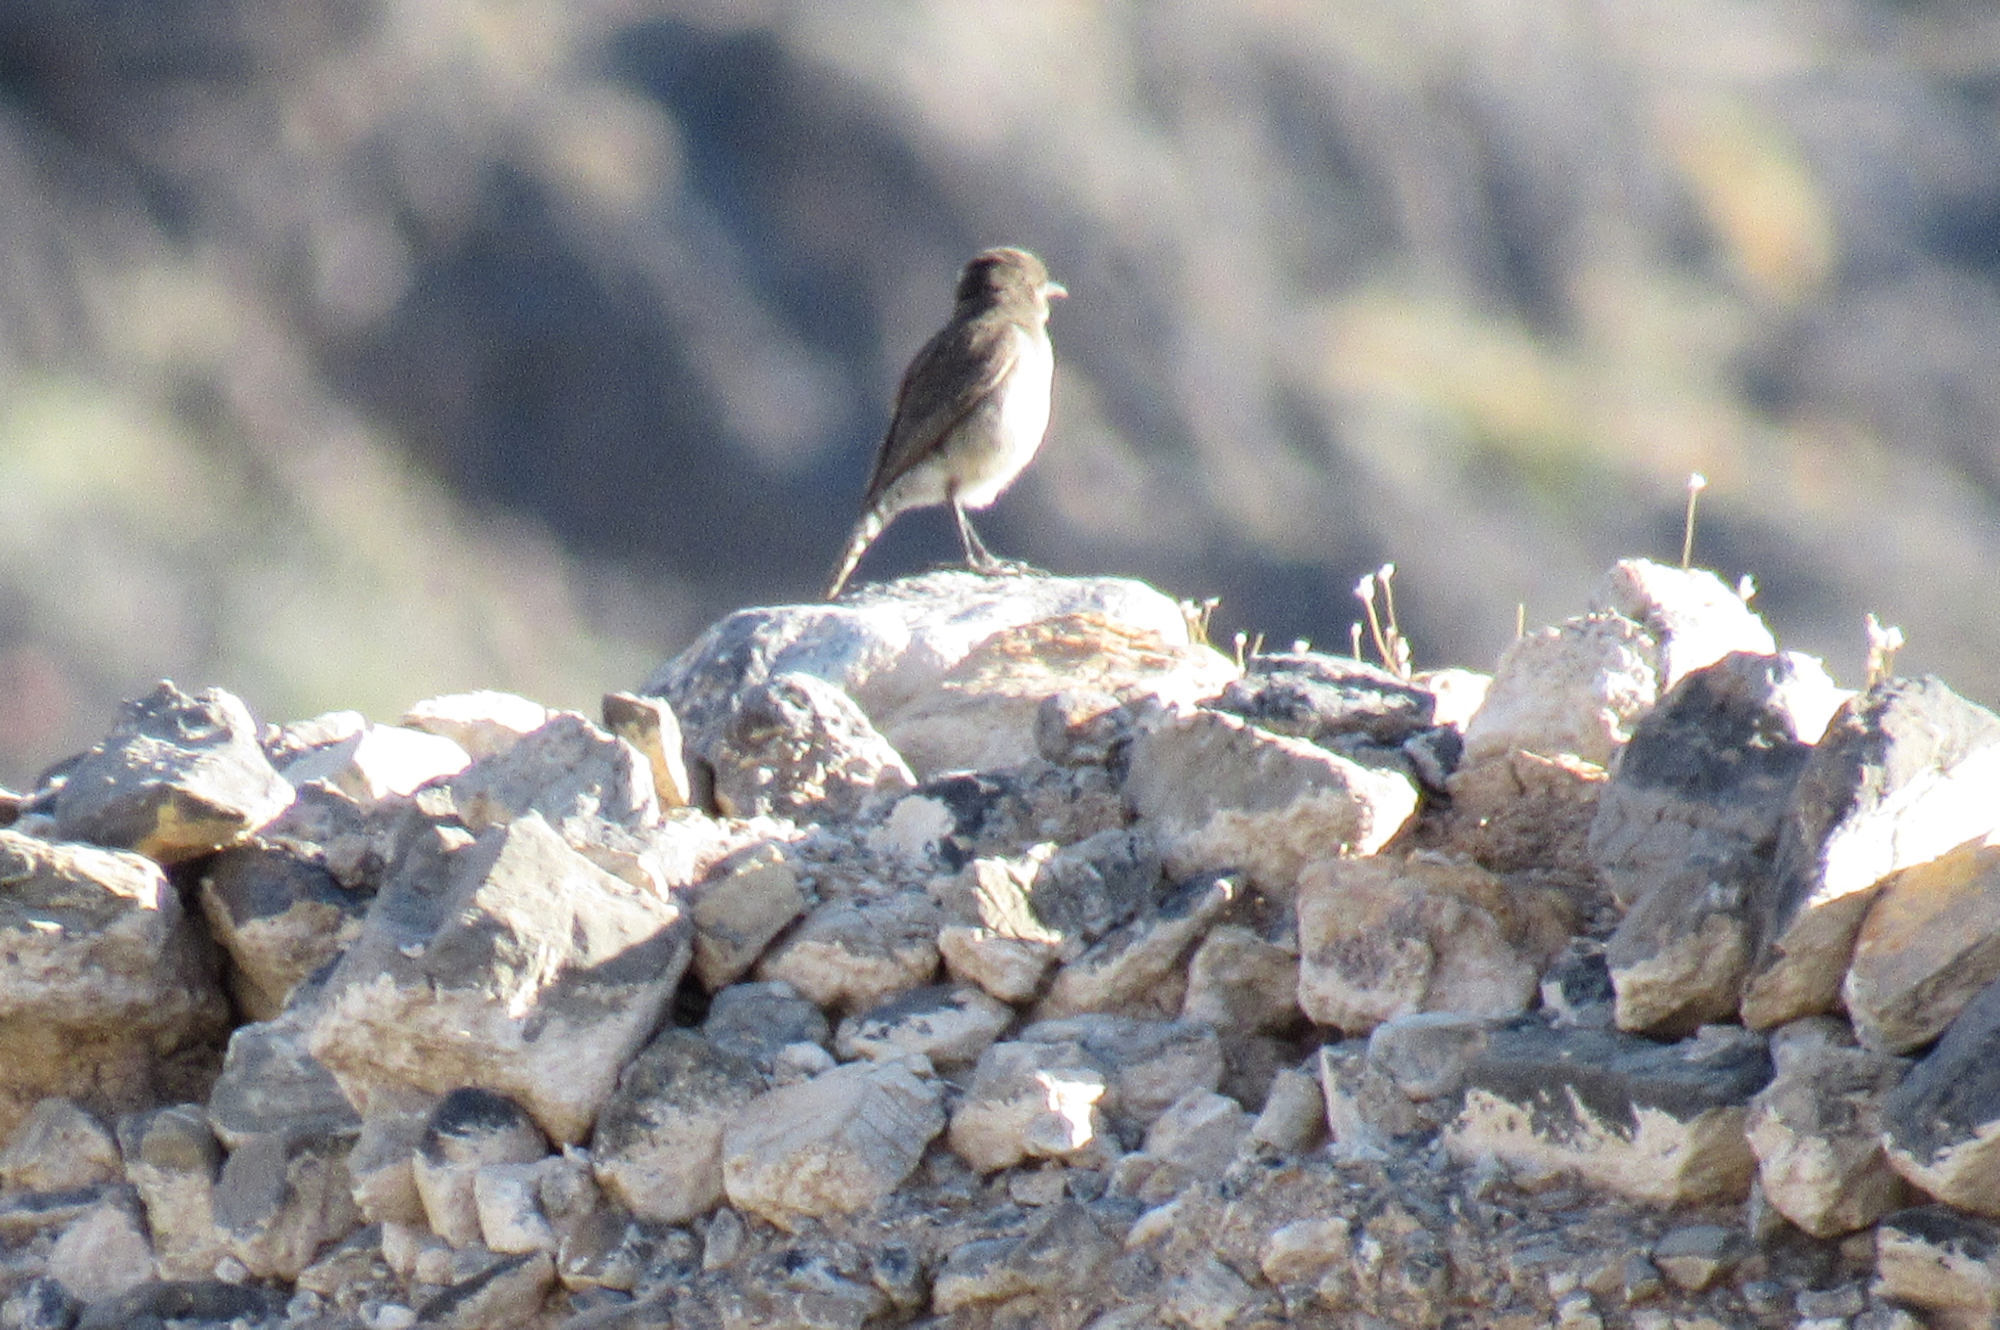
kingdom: Animalia
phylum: Chordata
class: Aves
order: Passeriformes
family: Troglodytidae
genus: Salpinctes
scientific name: Salpinctes obsoletus
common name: Rock wren
